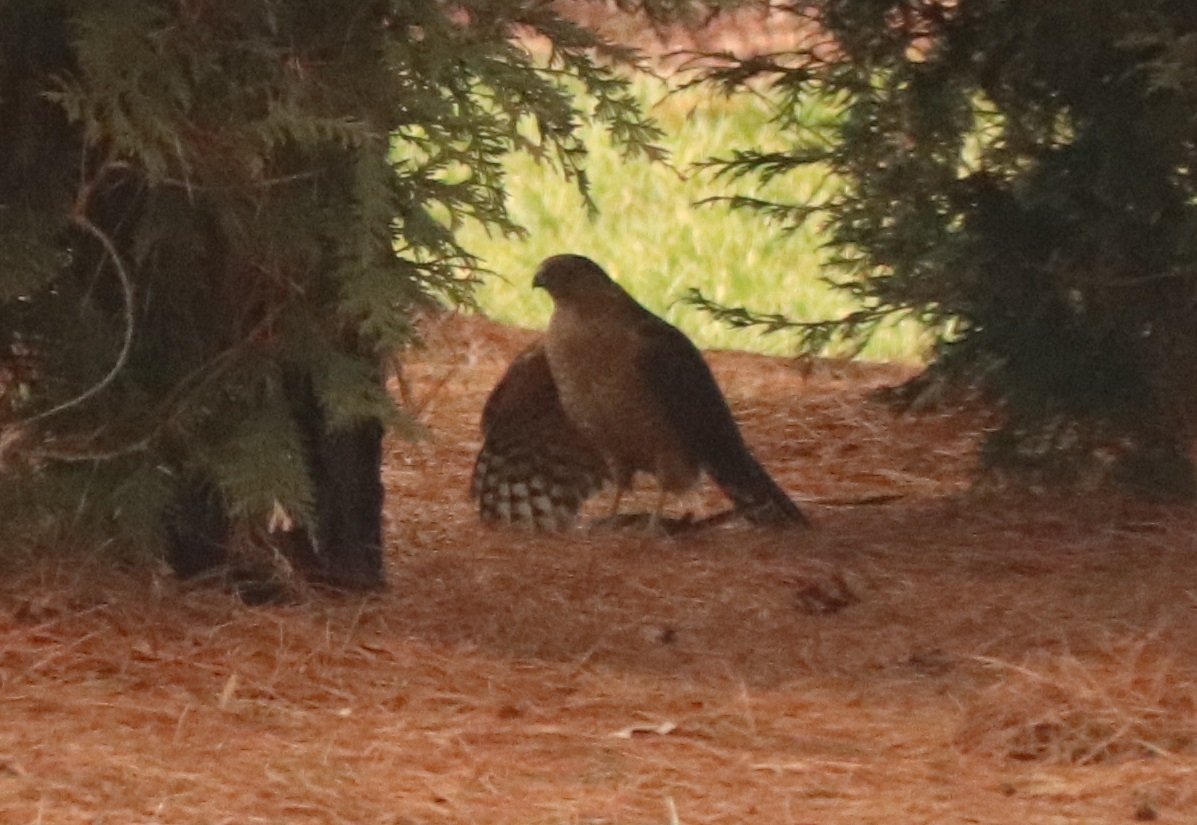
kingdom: Animalia
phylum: Chordata
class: Aves
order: Accipitriformes
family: Accipitridae
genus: Accipiter
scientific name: Accipiter cooperii
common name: Cooper's hawk
